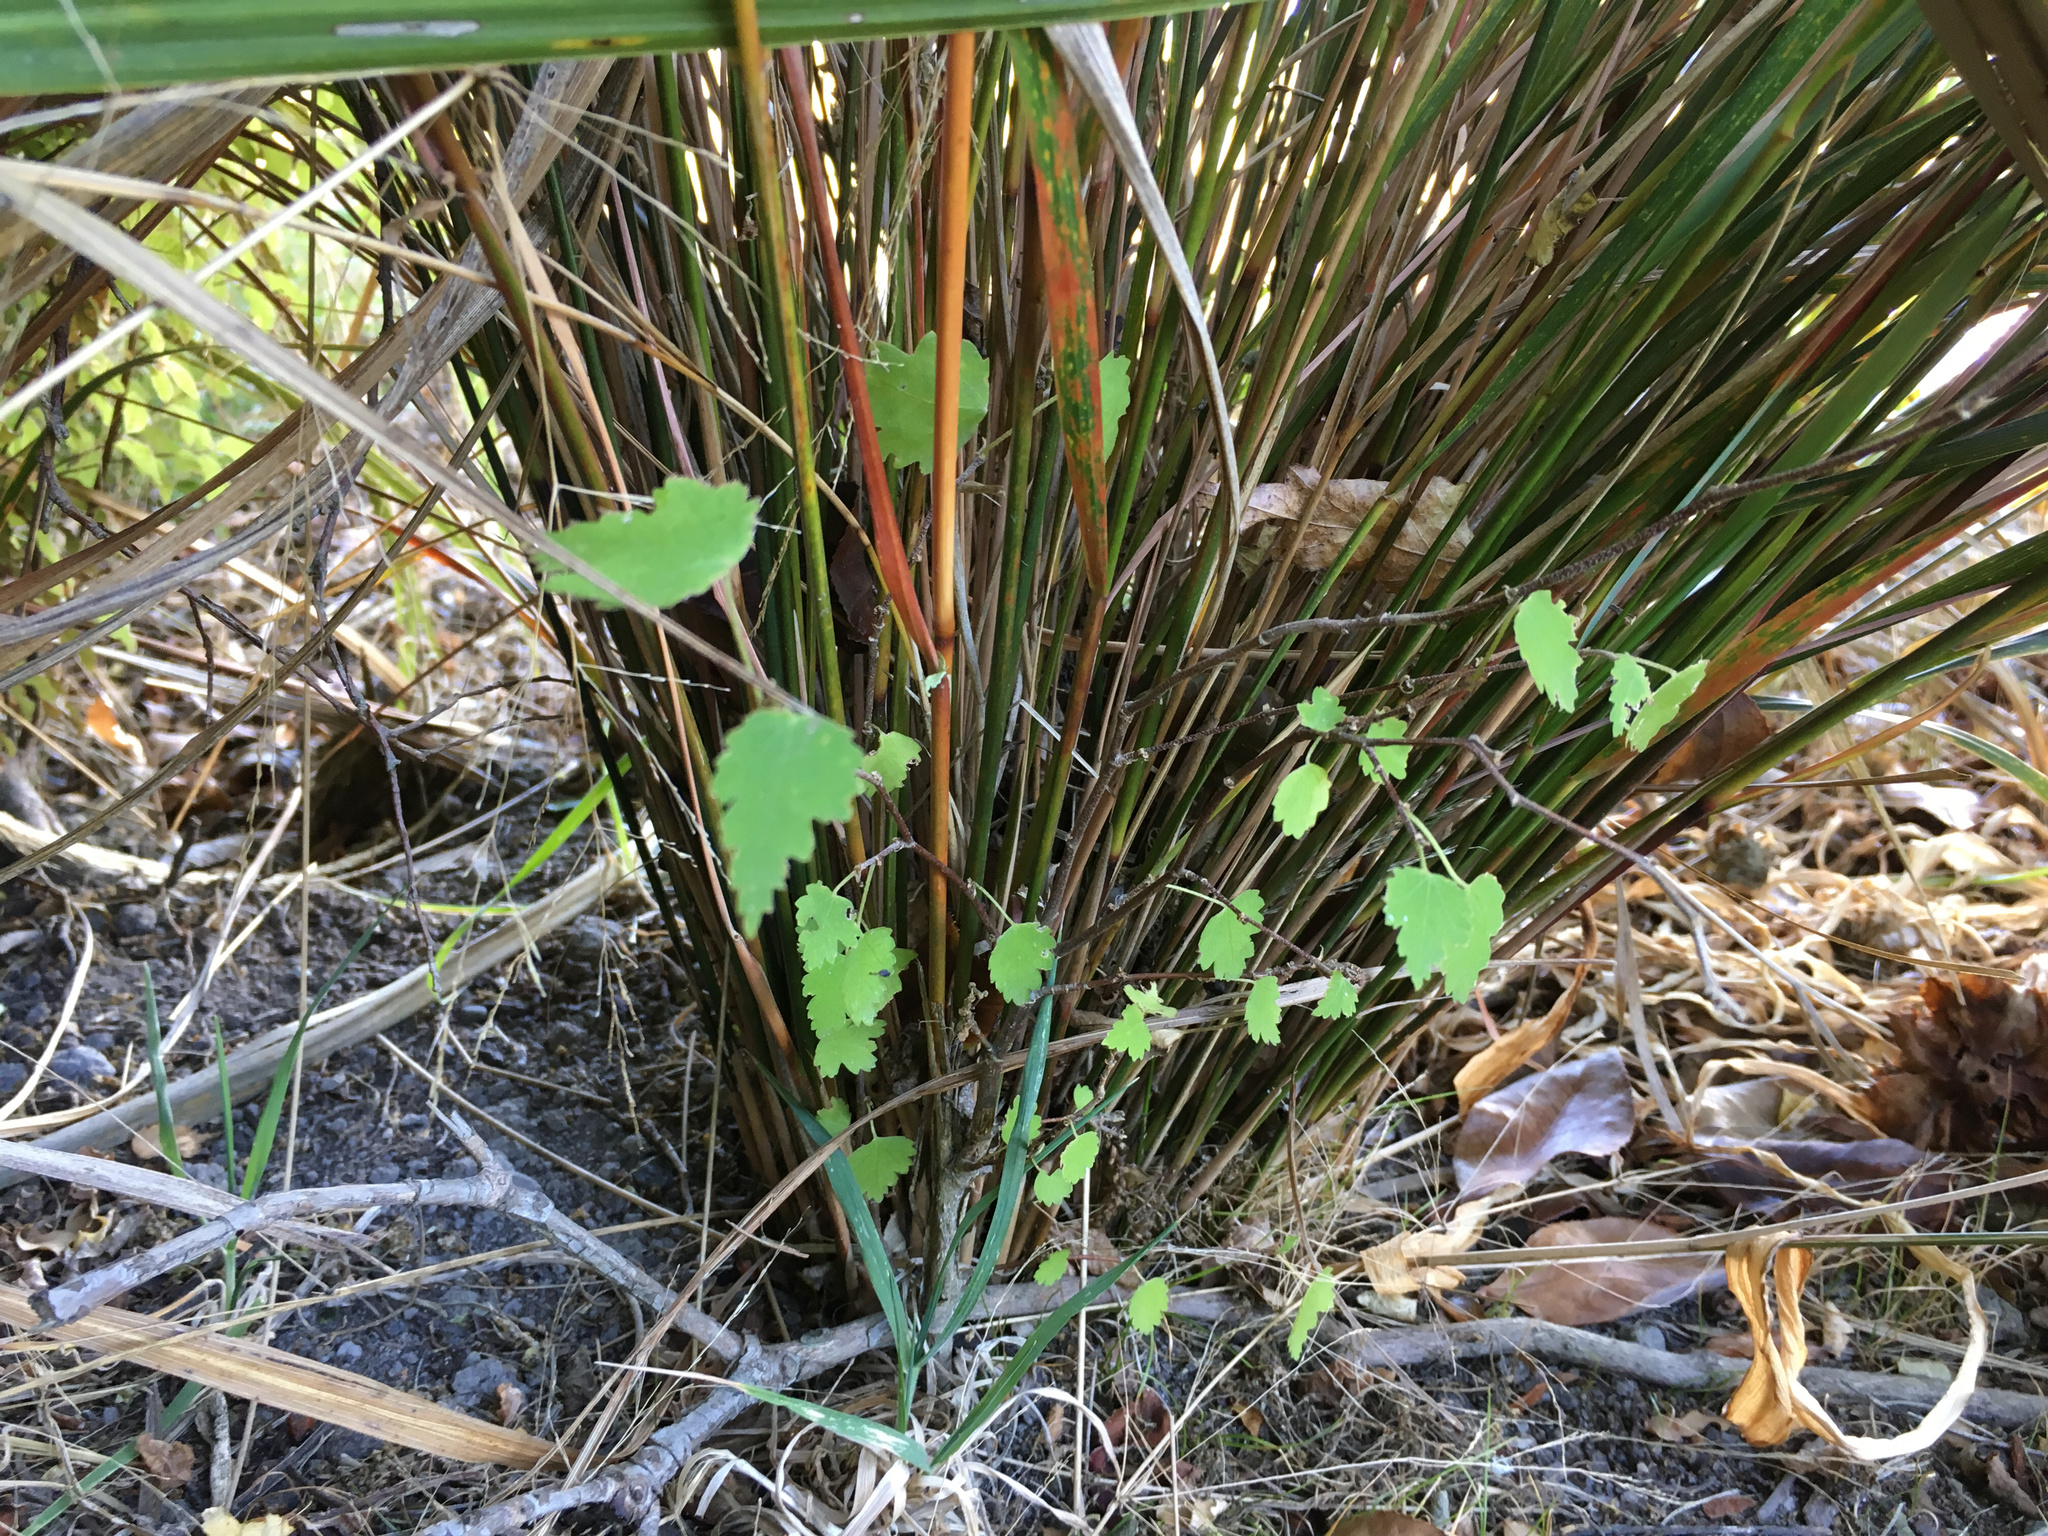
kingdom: Plantae
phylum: Tracheophyta
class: Magnoliopsida
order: Malvales
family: Malvaceae
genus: Plagianthus
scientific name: Plagianthus regius
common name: Manatu
